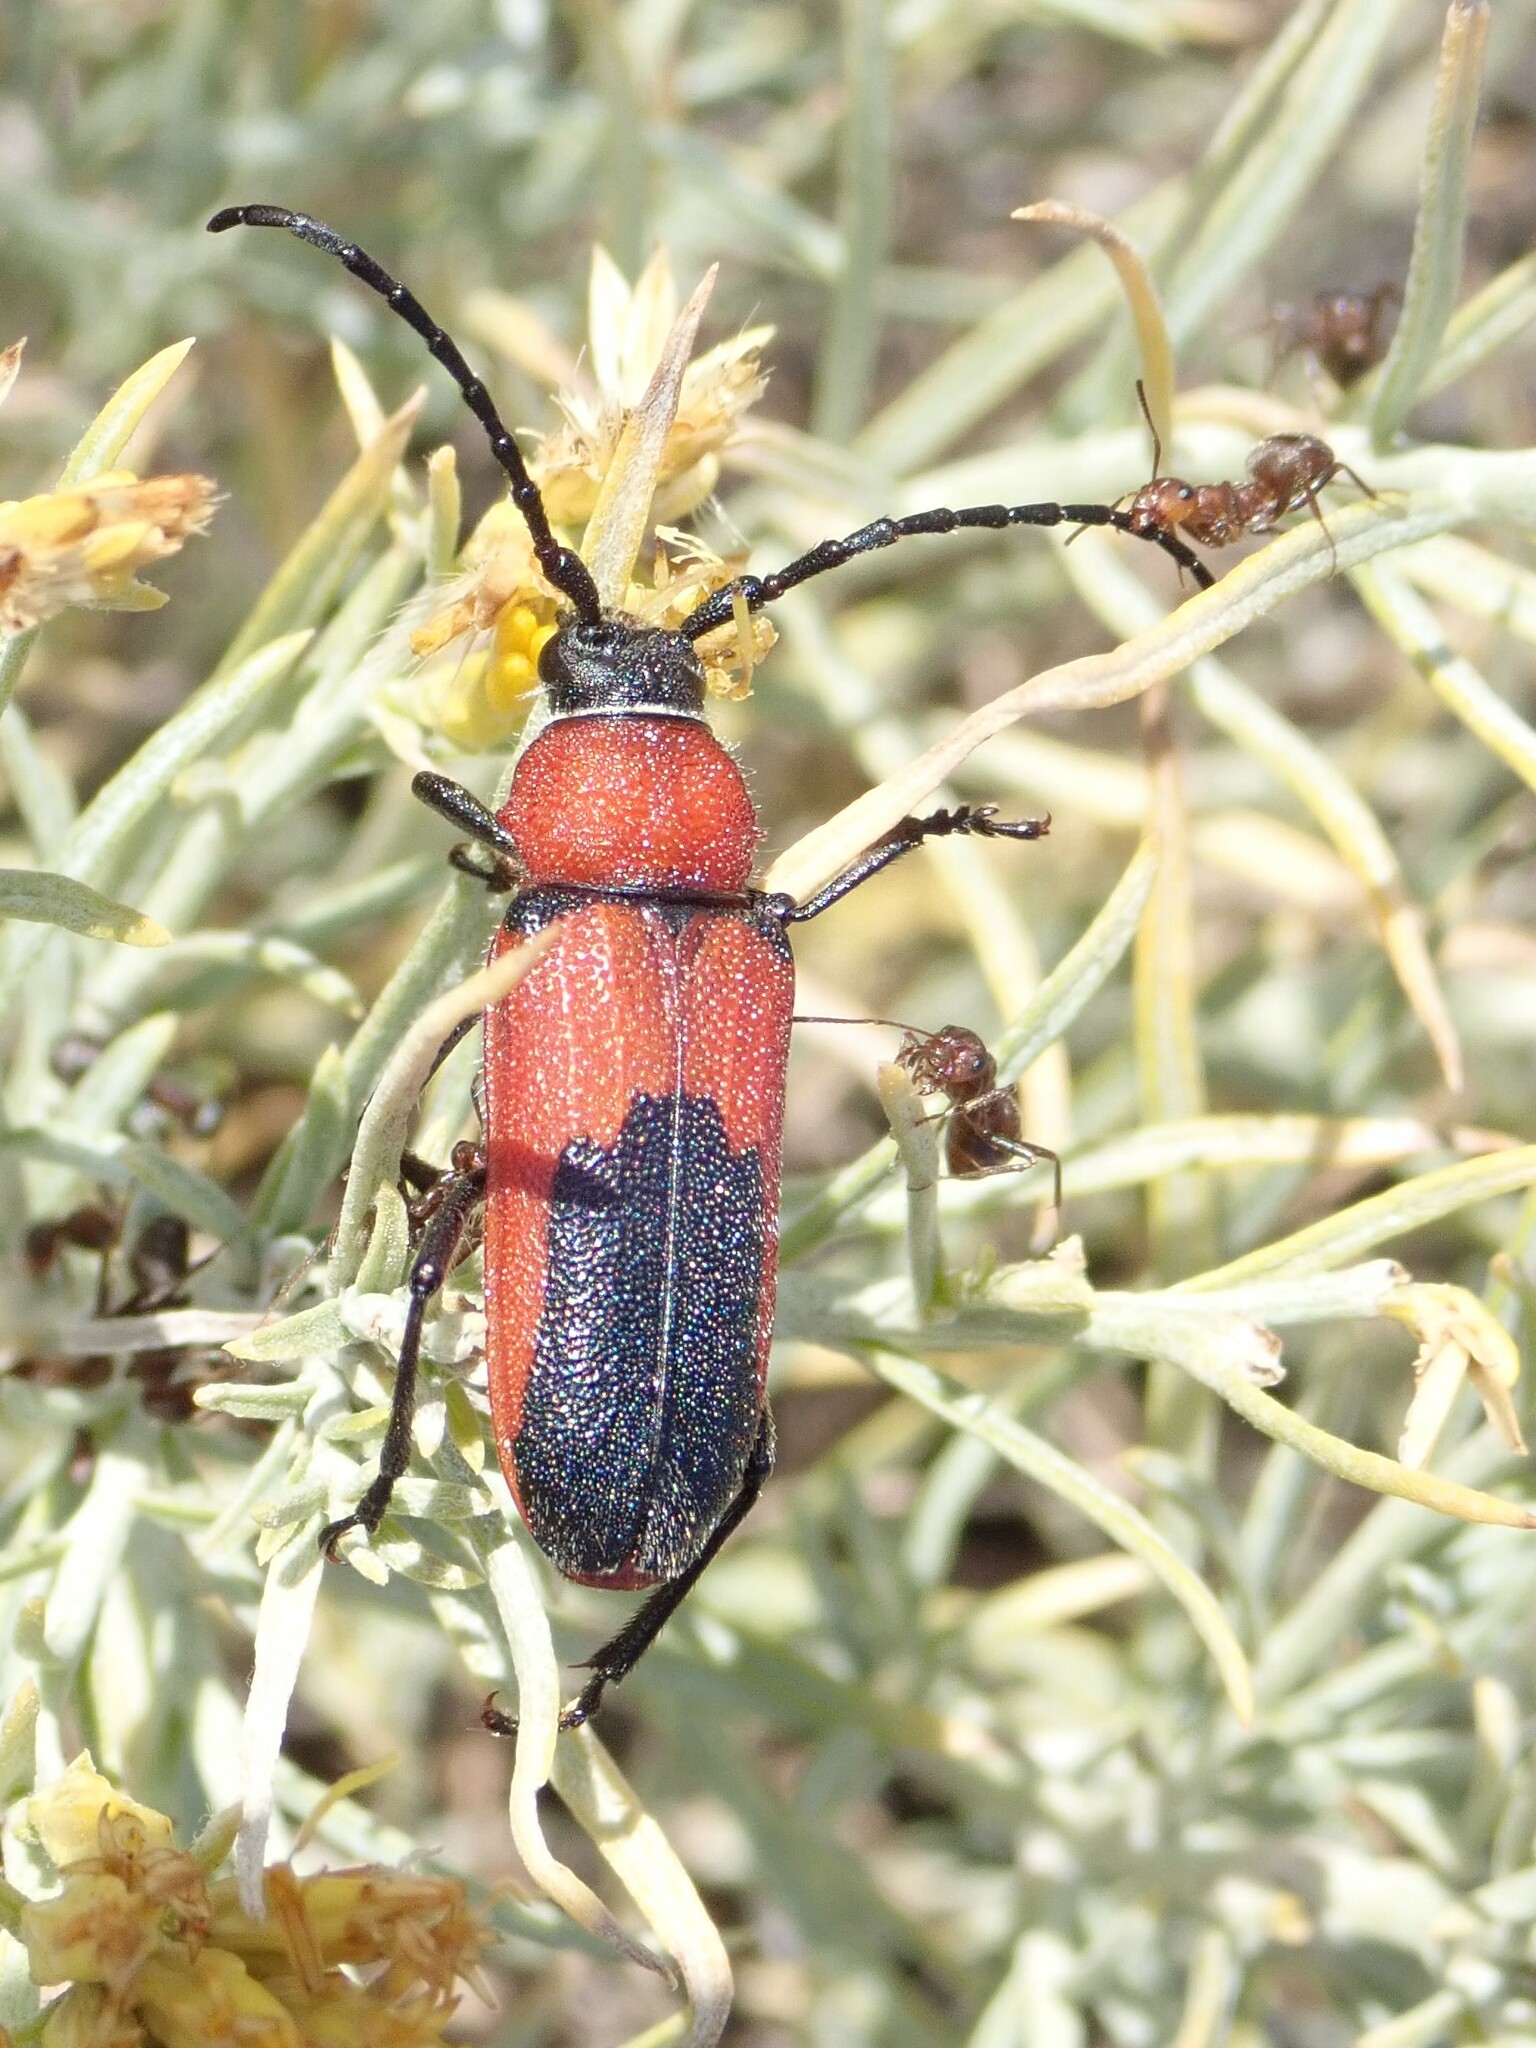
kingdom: Animalia
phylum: Arthropoda
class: Insecta
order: Coleoptera
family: Cerambycidae
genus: Crossidius
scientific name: Crossidius coralinus
